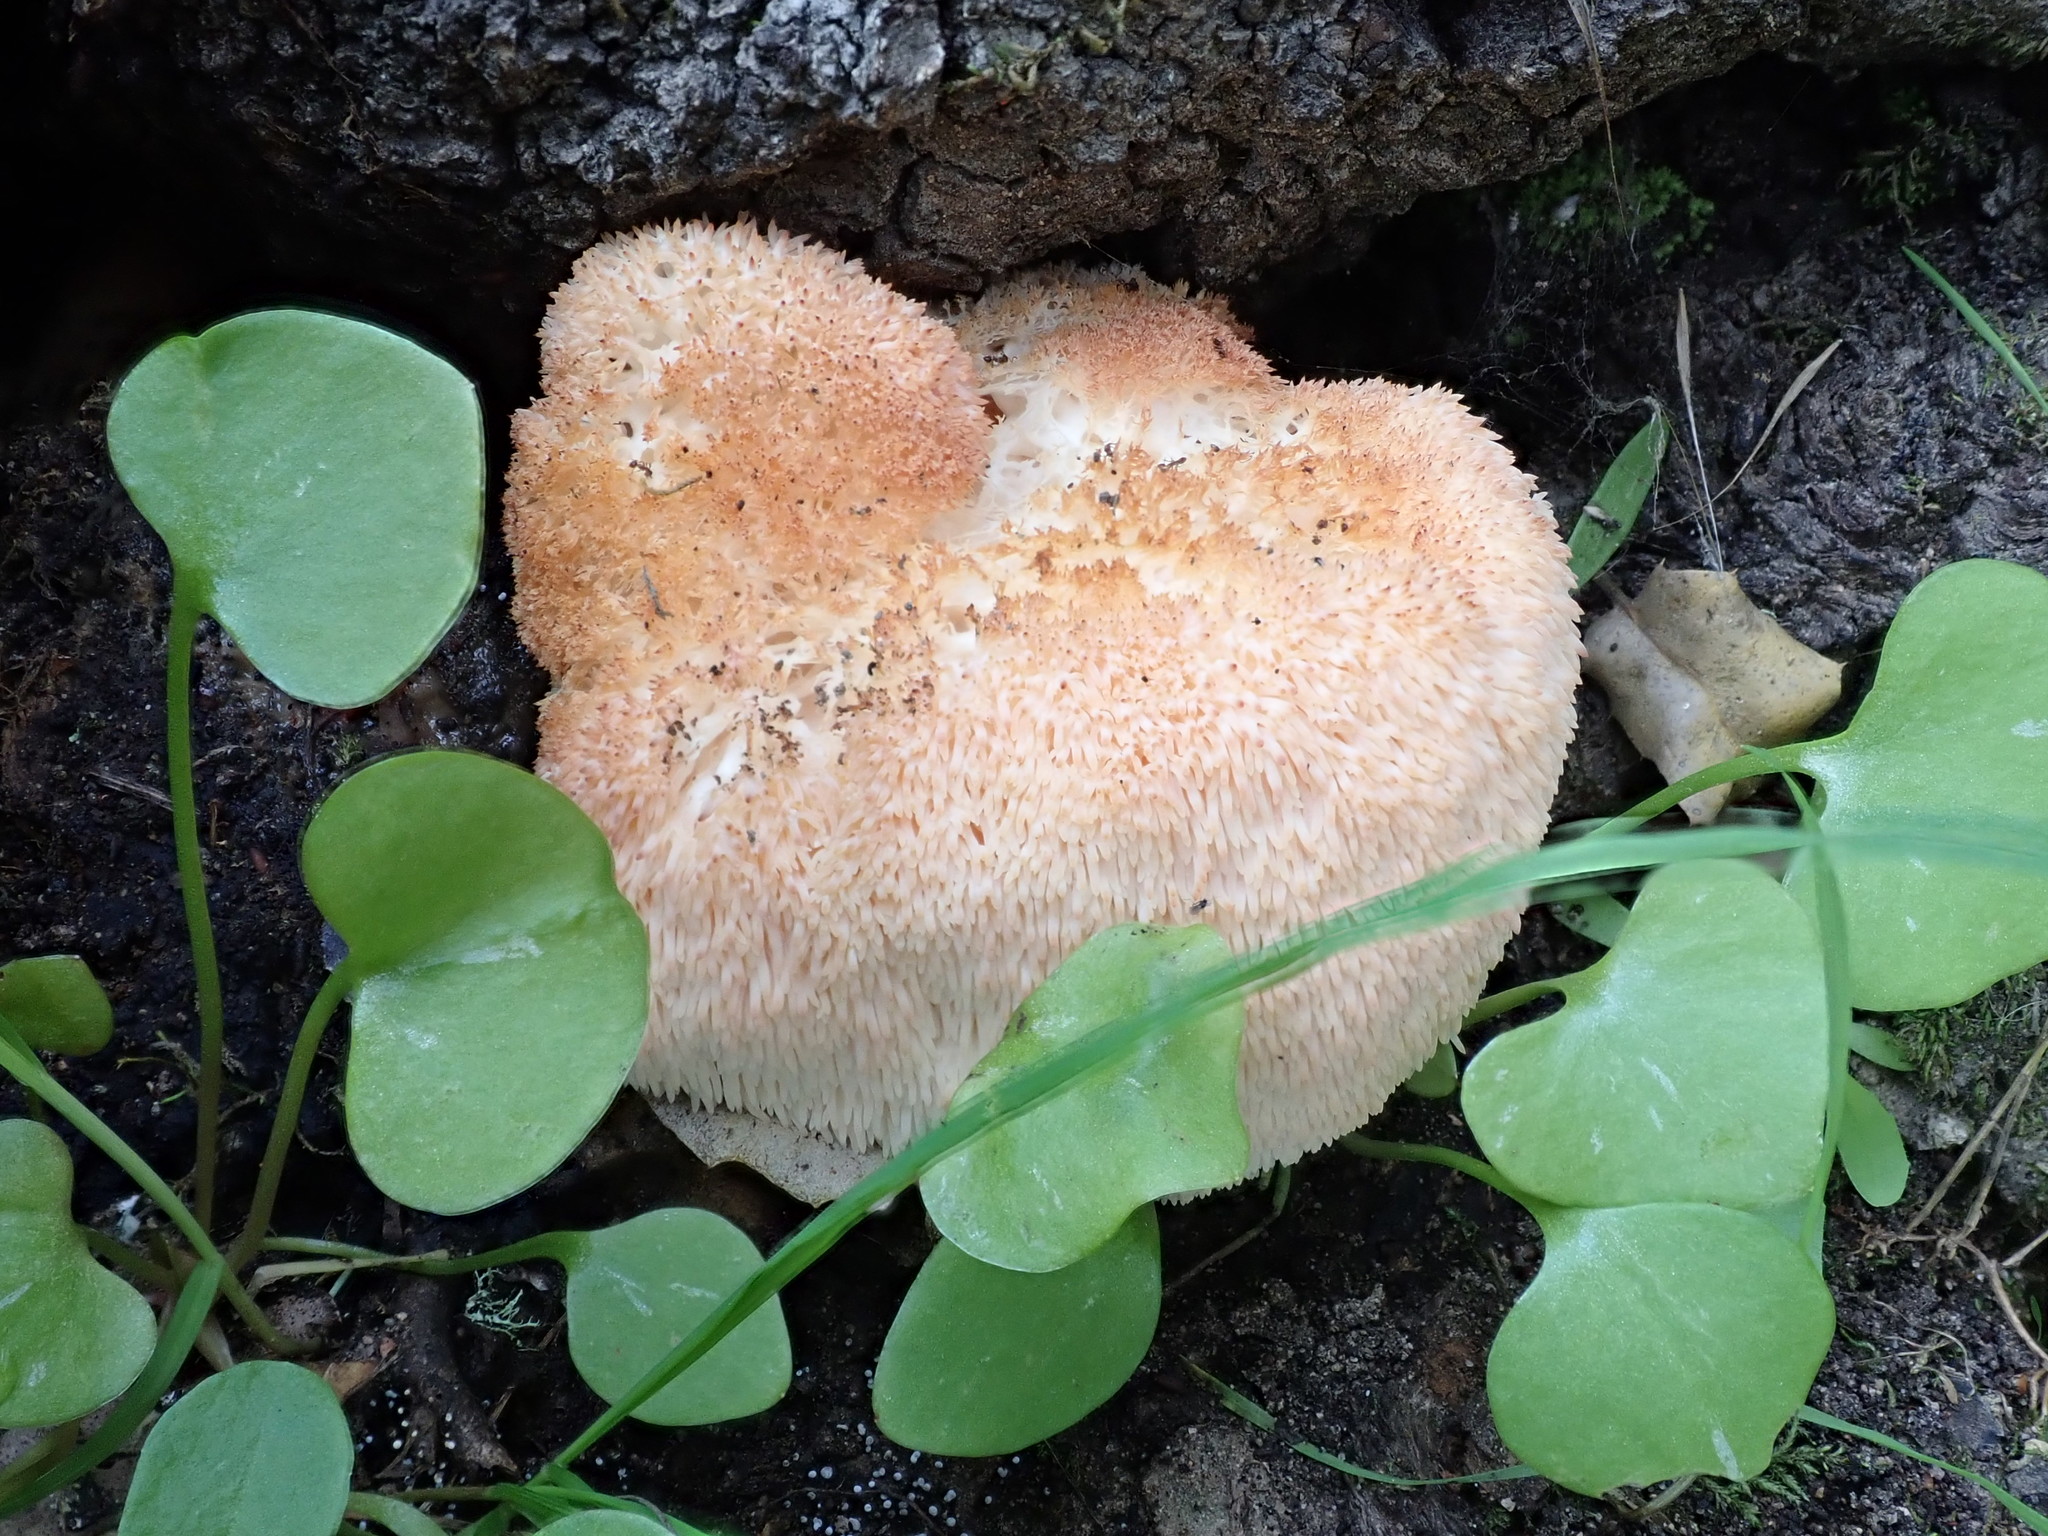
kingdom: Fungi
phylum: Basidiomycota
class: Agaricomycetes
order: Russulales
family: Hericiaceae
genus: Hericium
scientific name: Hericium erinaceus
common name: Bearded tooth
